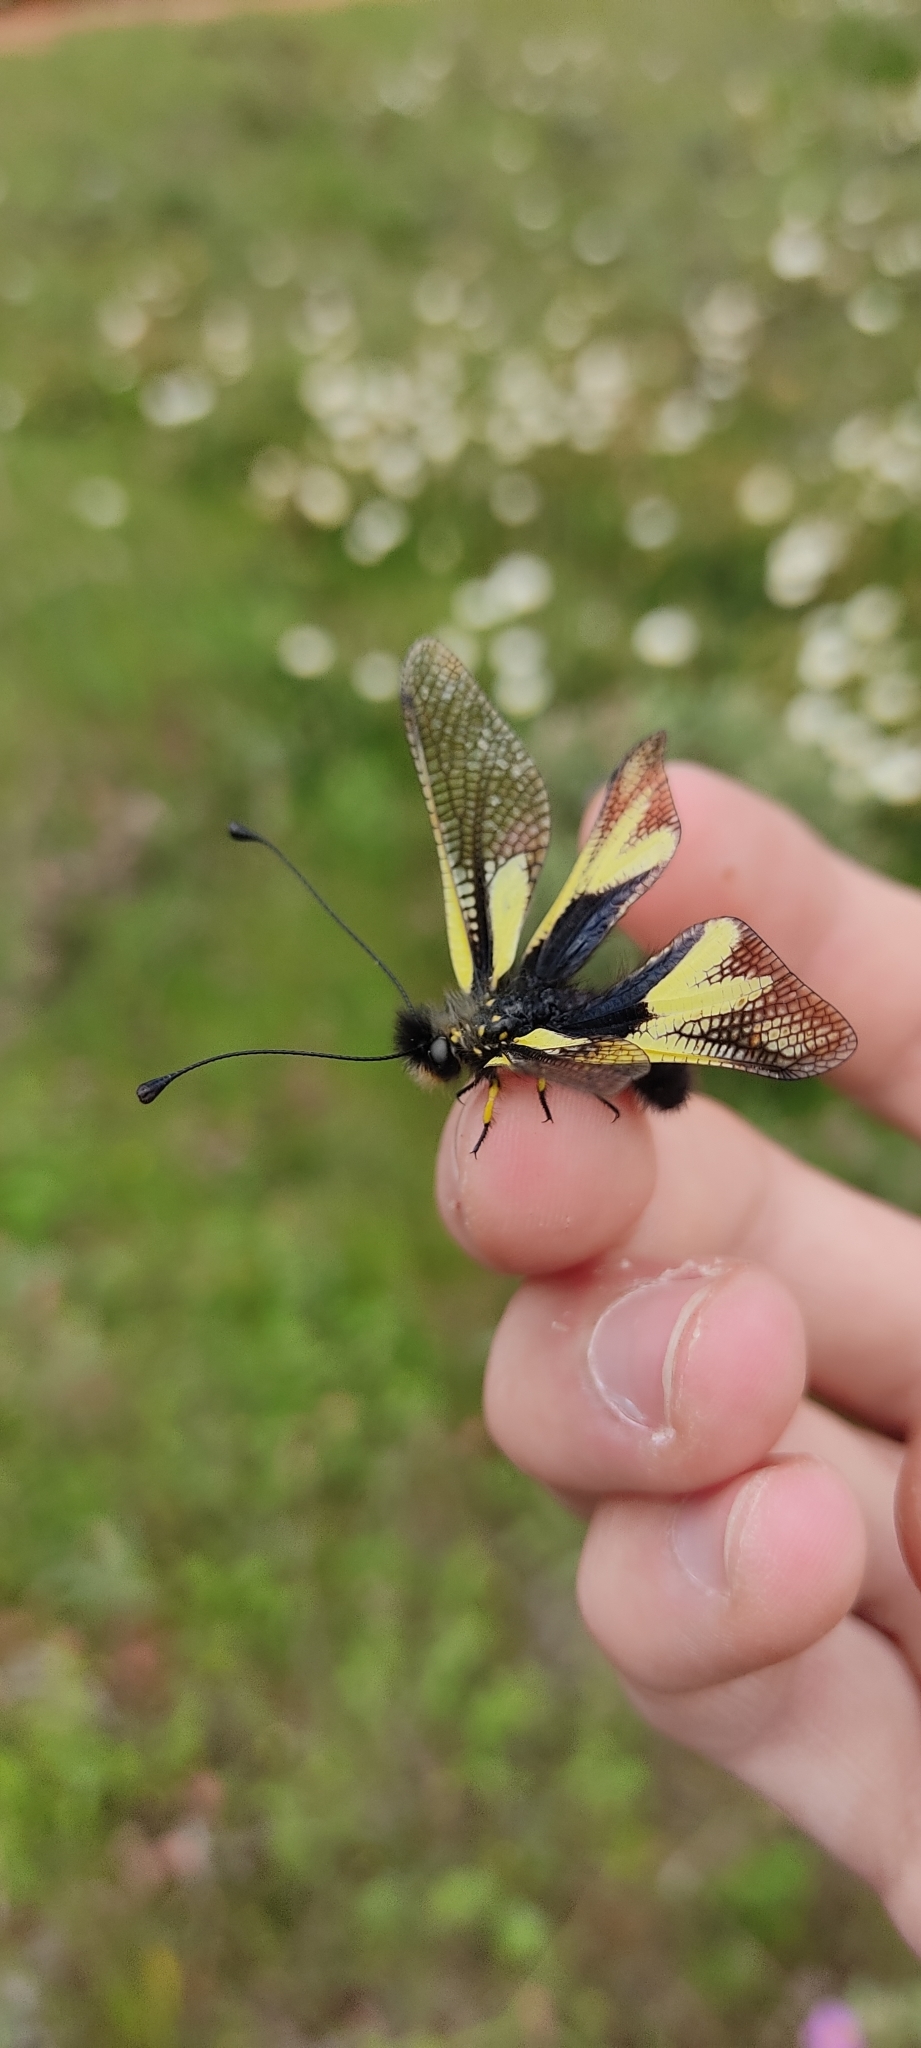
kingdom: Animalia
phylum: Arthropoda
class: Insecta
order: Neuroptera
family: Ascalaphidae
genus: Libelloides
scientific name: Libelloides coccajus
